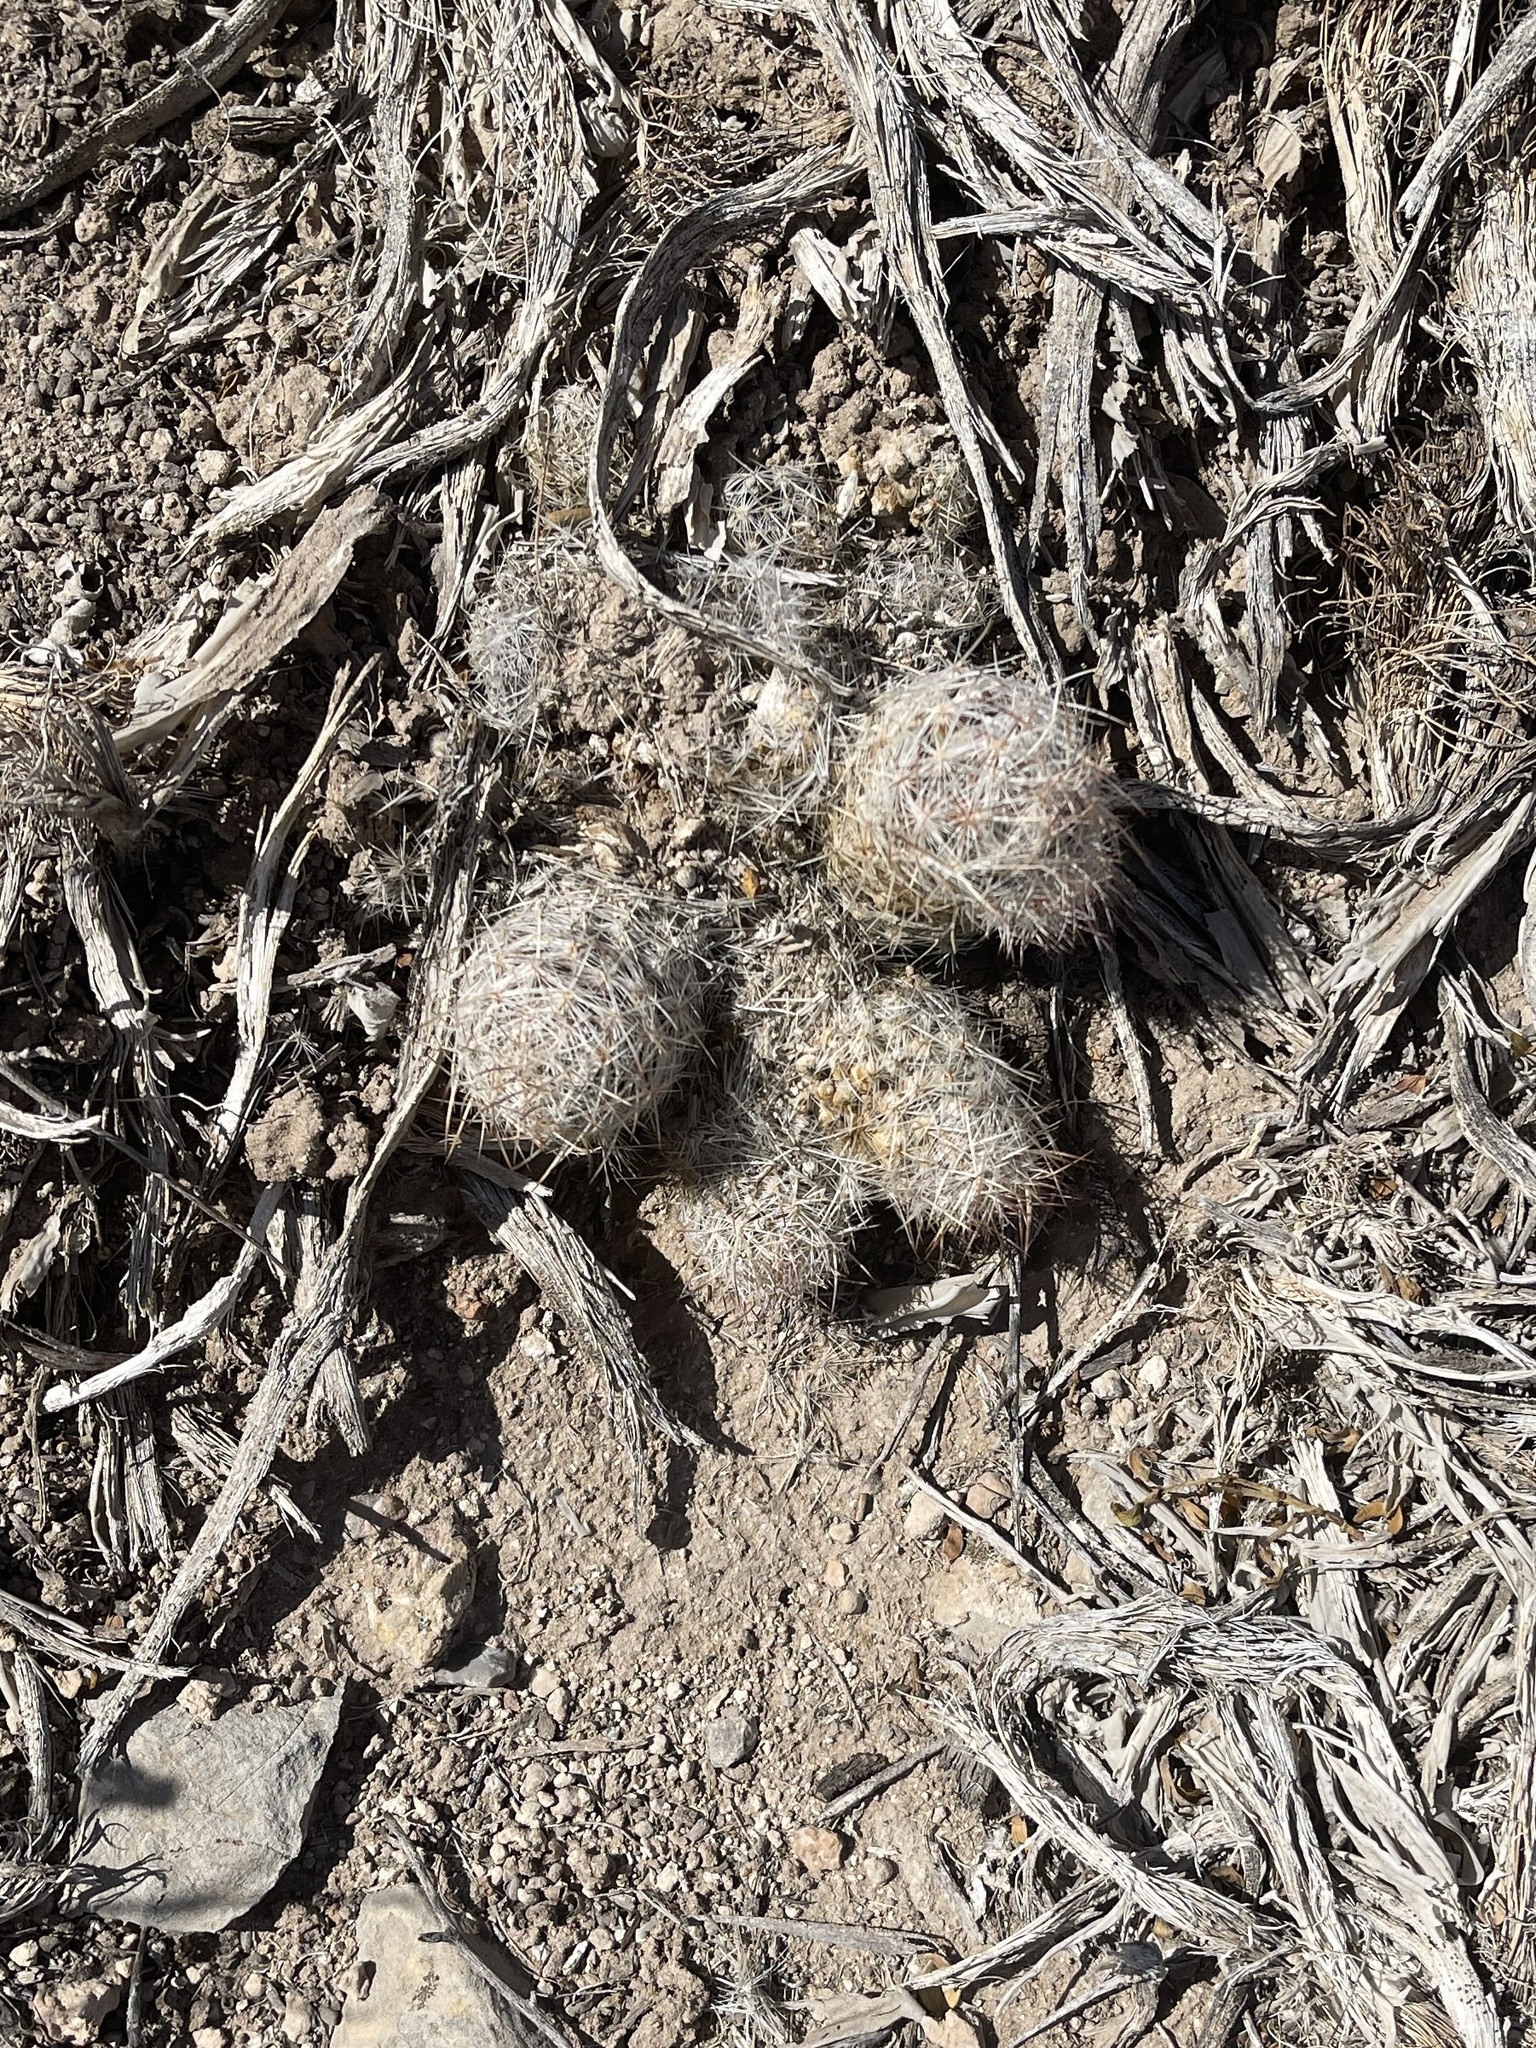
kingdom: Plantae
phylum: Tracheophyta
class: Magnoliopsida
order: Caryophyllales
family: Cactaceae
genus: Pelecyphora
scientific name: Pelecyphora tuberculosa
